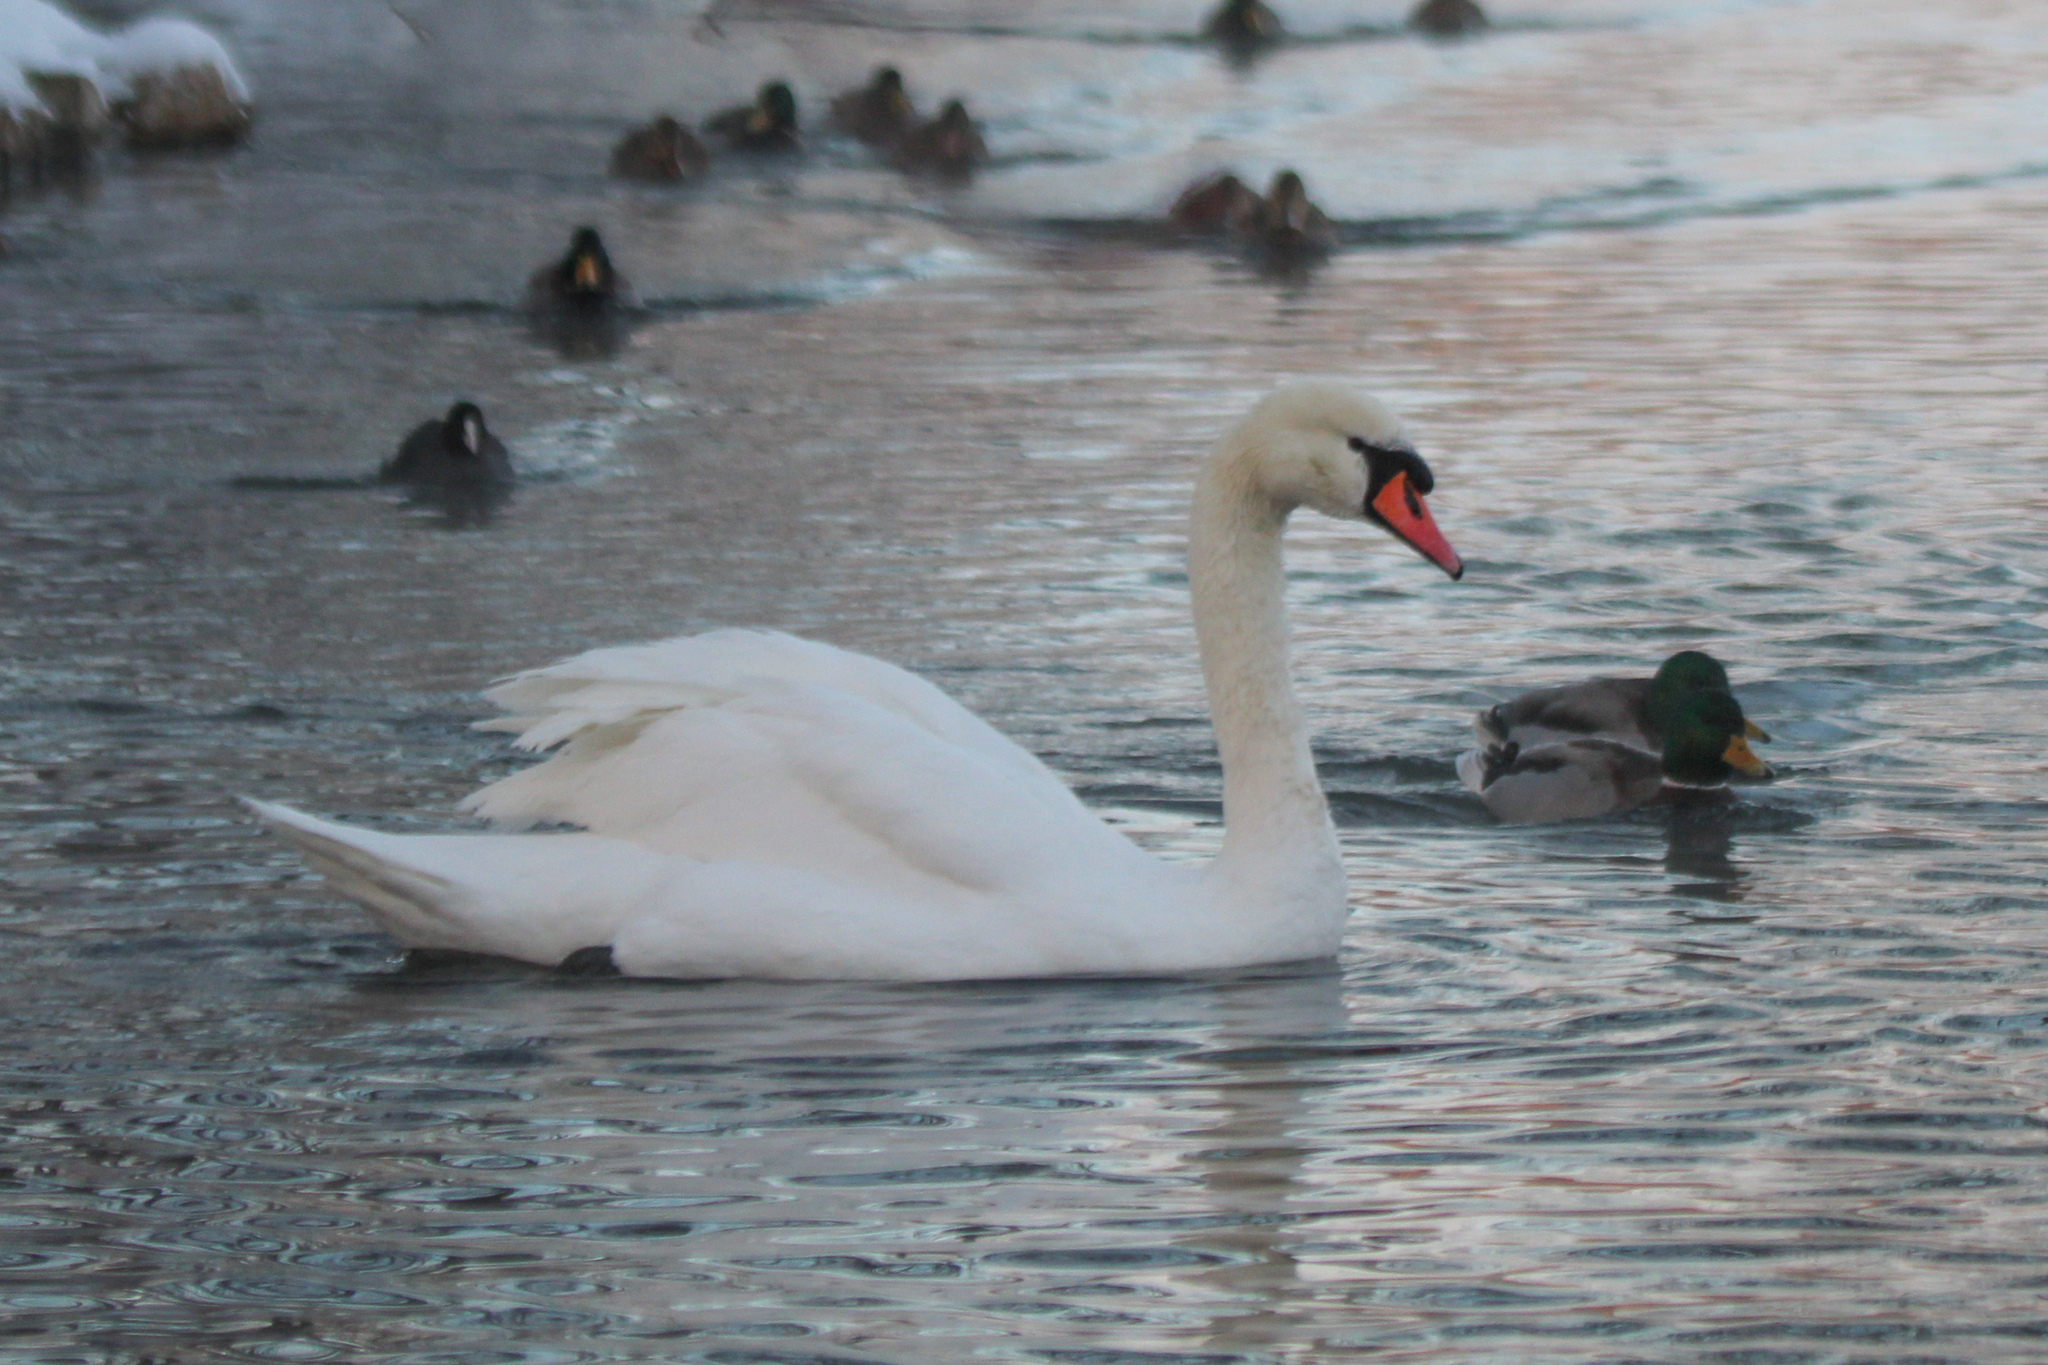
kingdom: Animalia
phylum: Chordata
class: Aves
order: Anseriformes
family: Anatidae
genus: Cygnus
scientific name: Cygnus olor
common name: Mute swan
